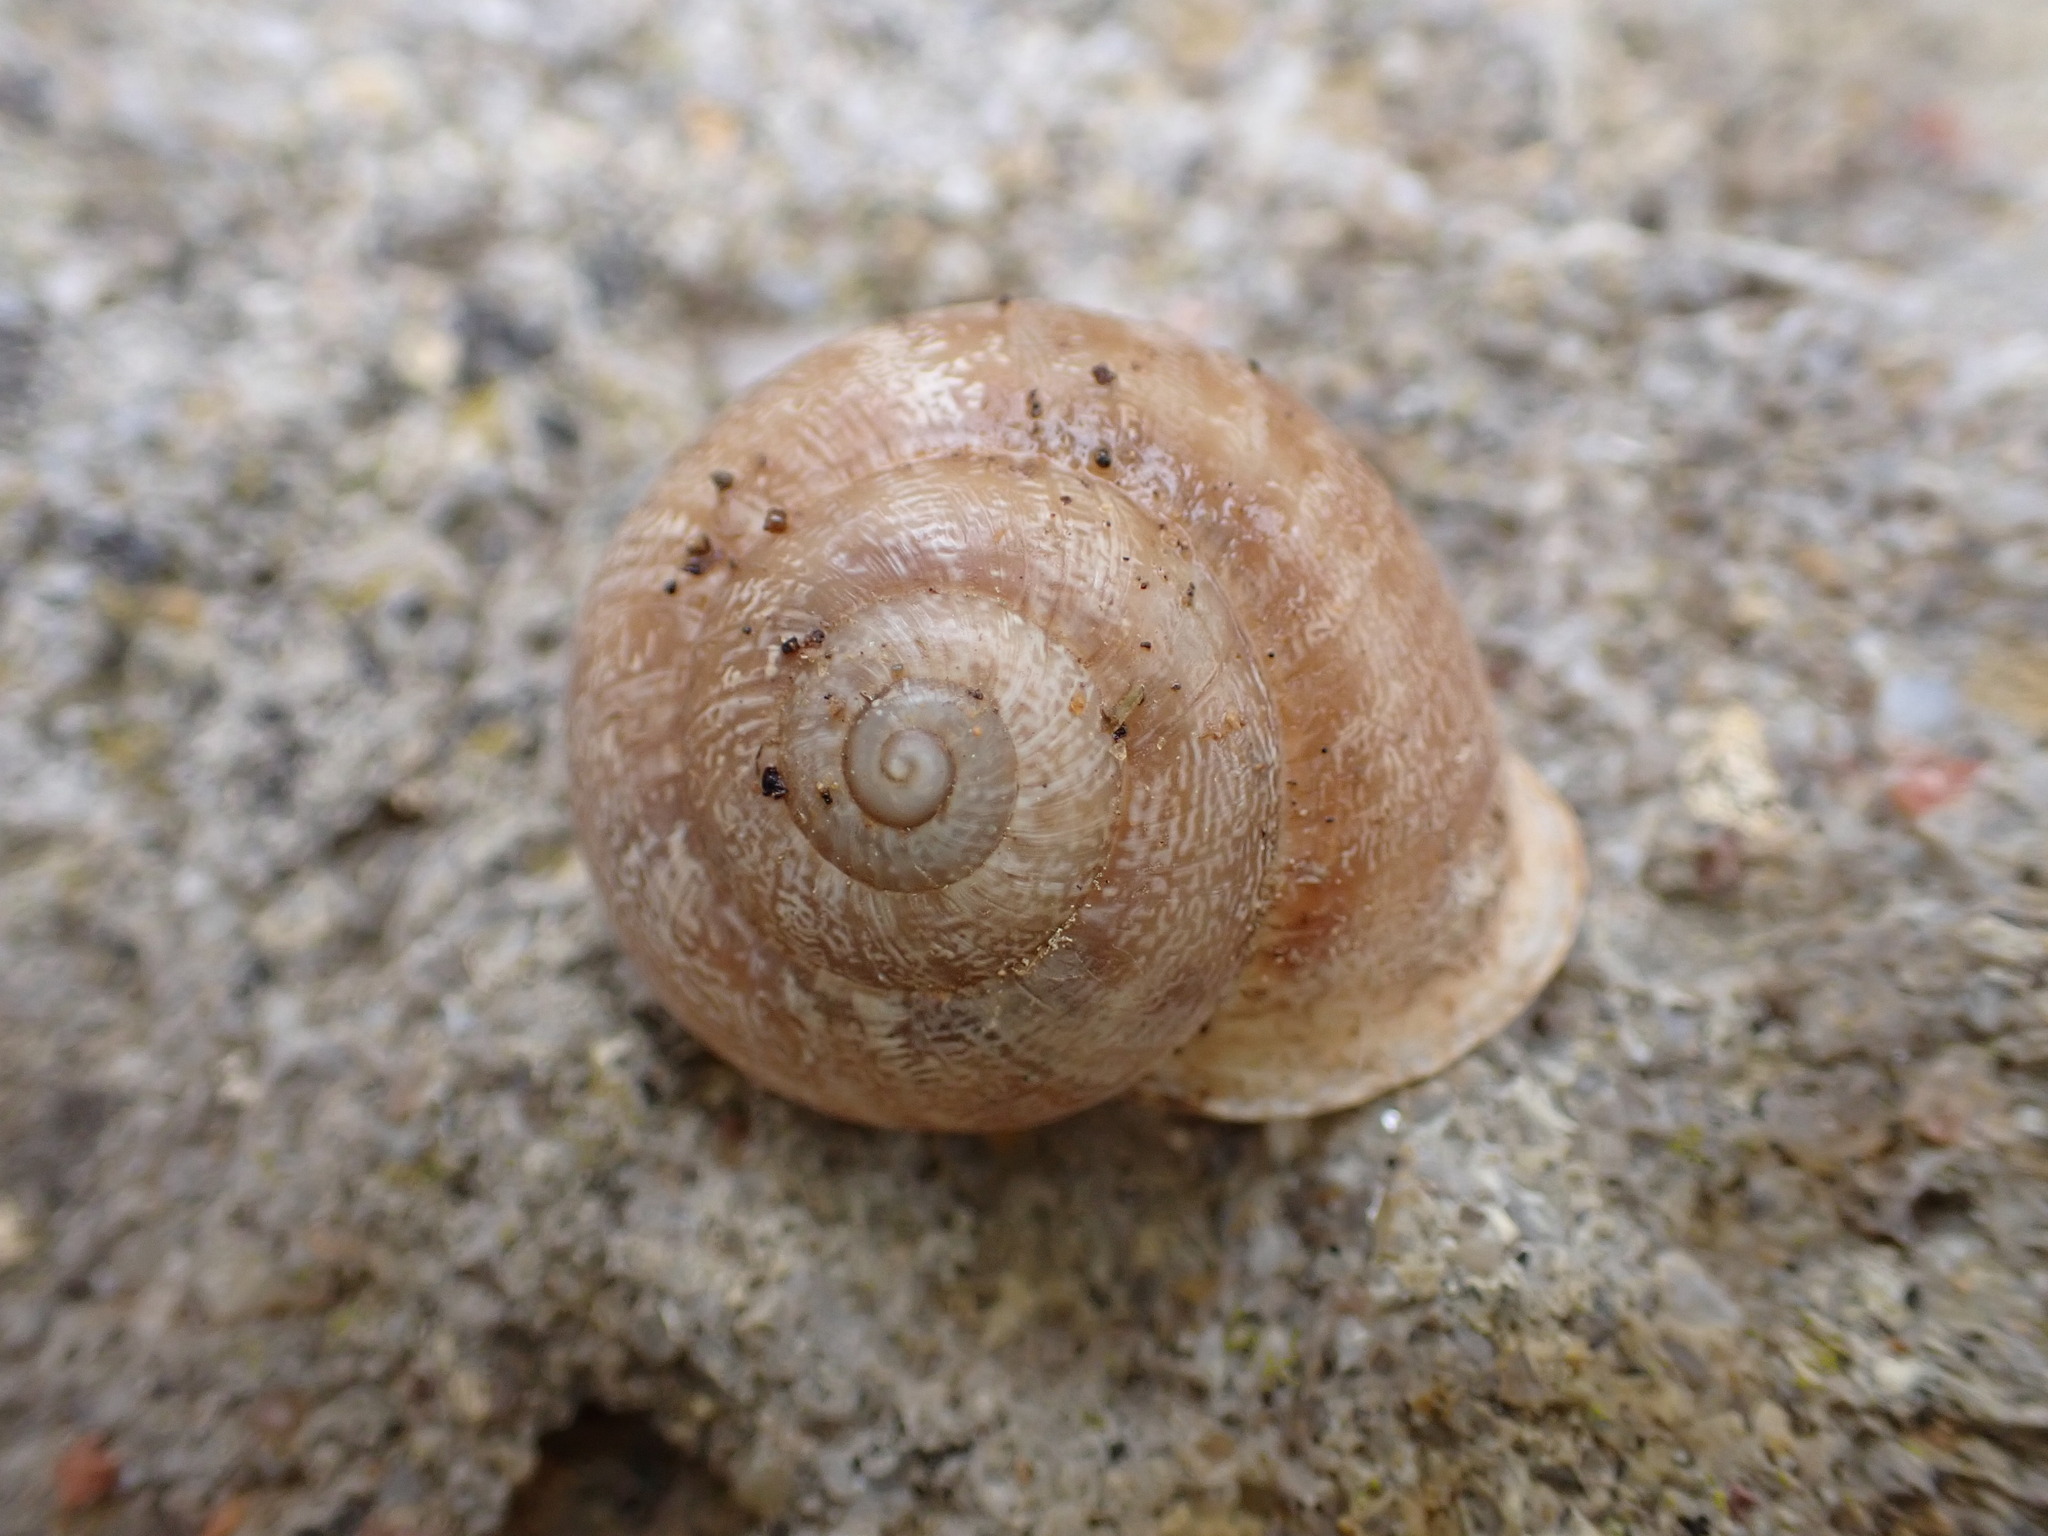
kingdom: Animalia
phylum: Mollusca
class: Gastropoda
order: Stylommatophora
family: Helicidae
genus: Eobania
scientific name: Eobania vermiculata
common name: Chocolateband snail
